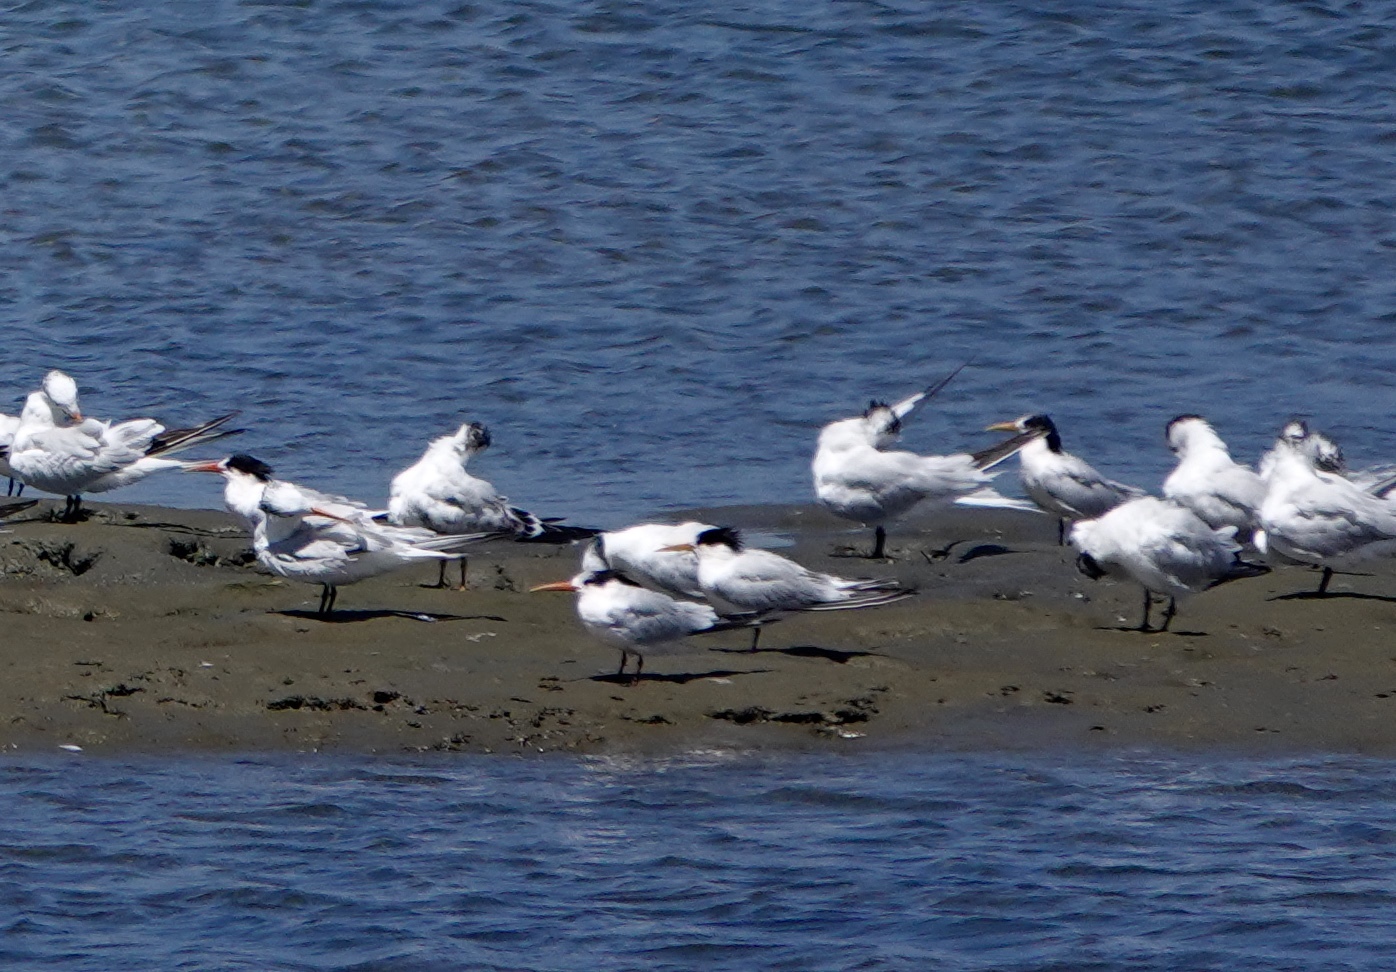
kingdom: Animalia
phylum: Chordata
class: Aves
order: Charadriiformes
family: Laridae
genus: Thalasseus
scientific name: Thalasseus elegans
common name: Elegant tern
